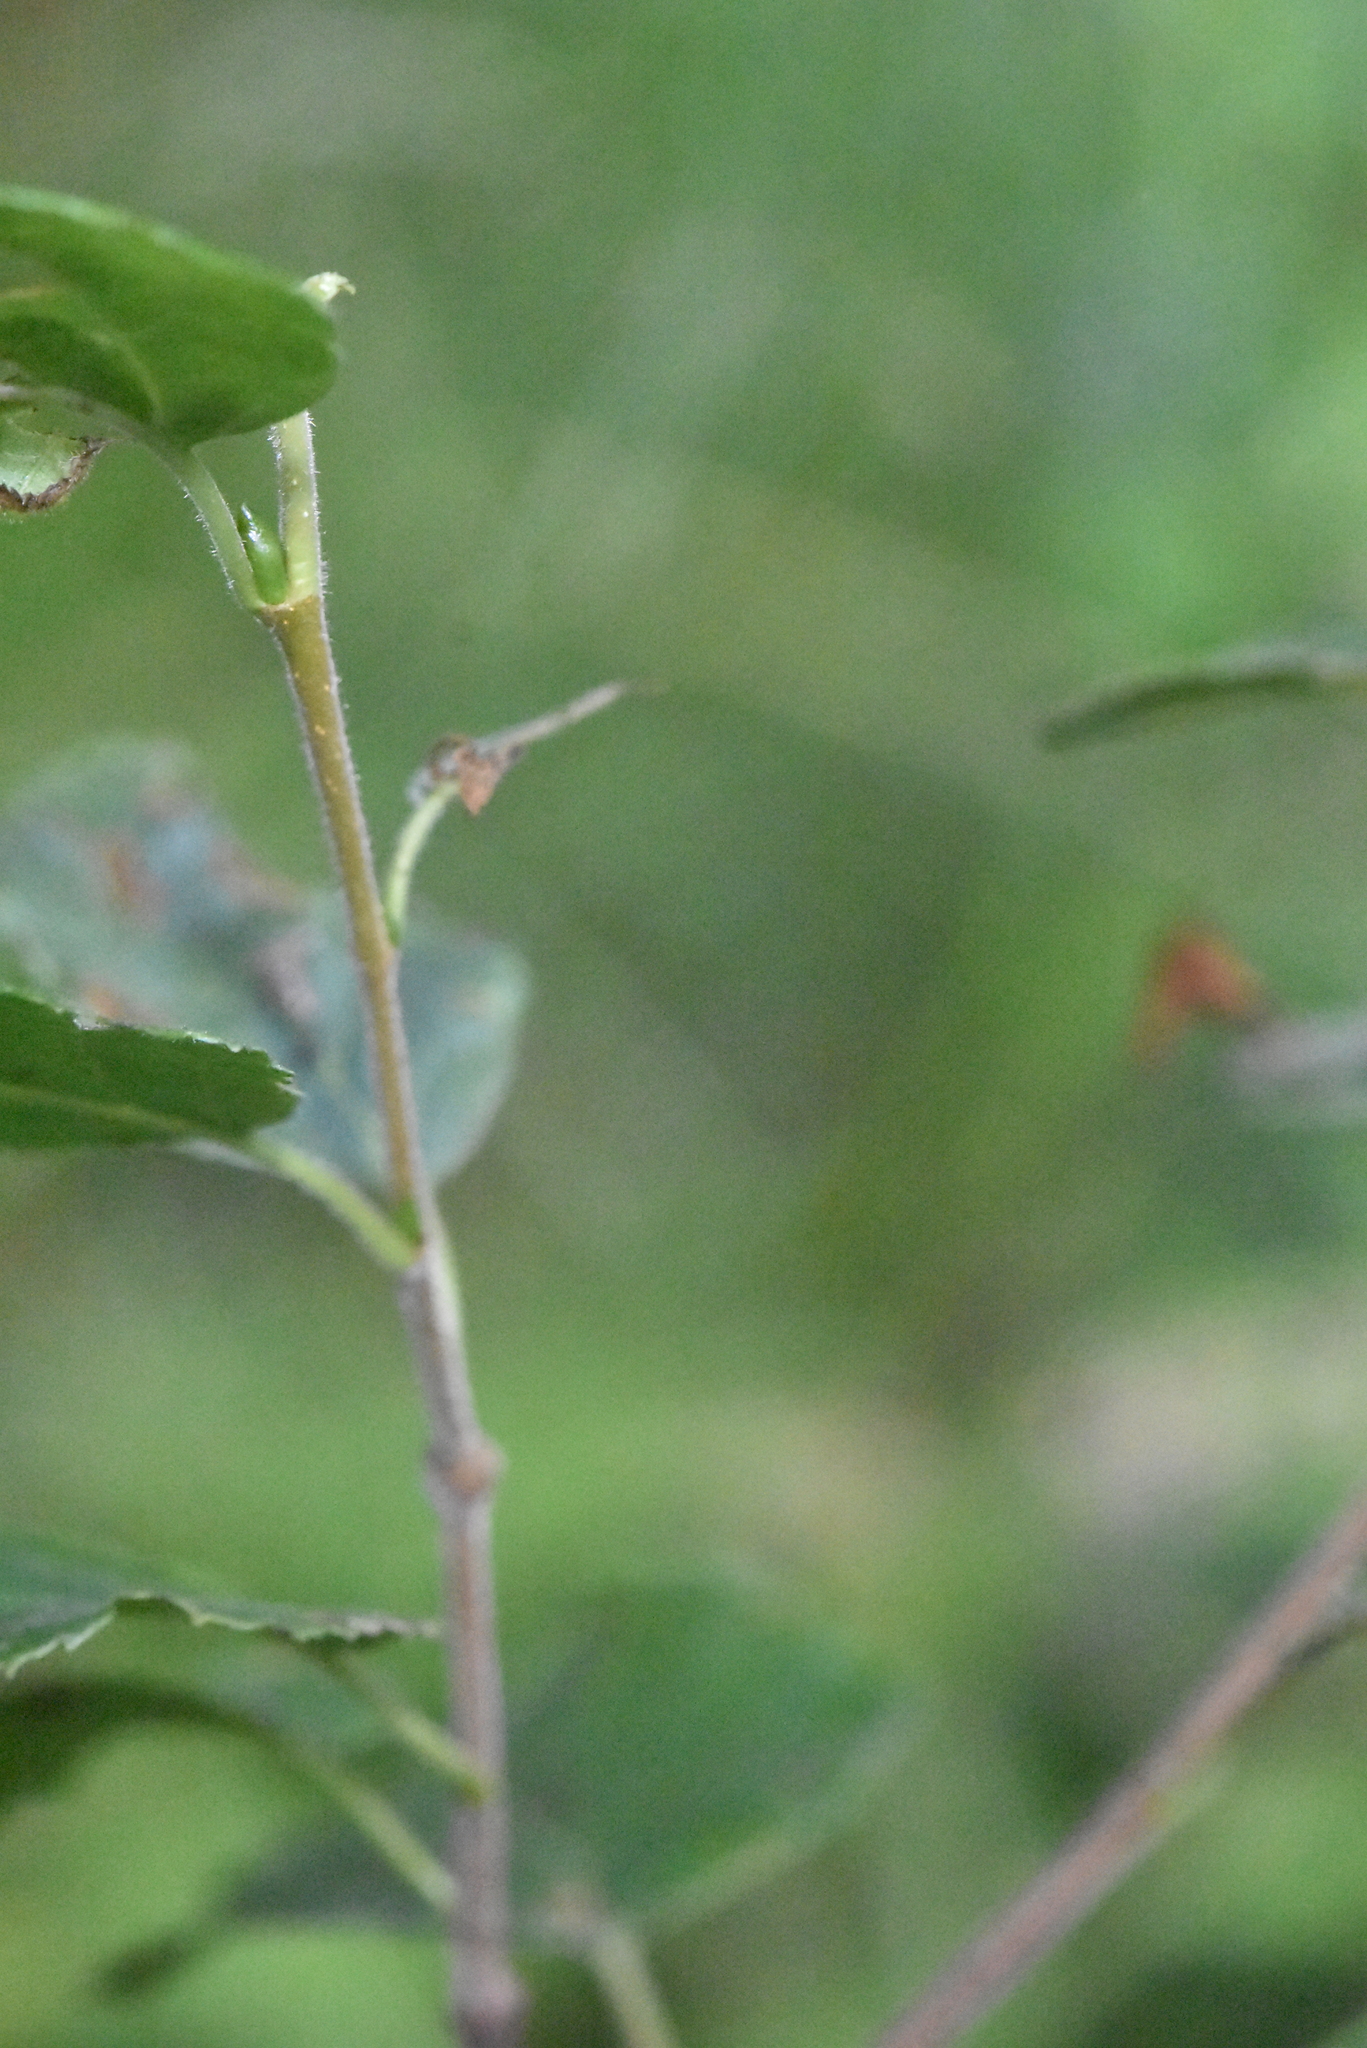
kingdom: Plantae
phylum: Tracheophyta
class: Magnoliopsida
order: Fagales
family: Betulaceae
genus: Betula
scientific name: Betula pubescens
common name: Downy birch
